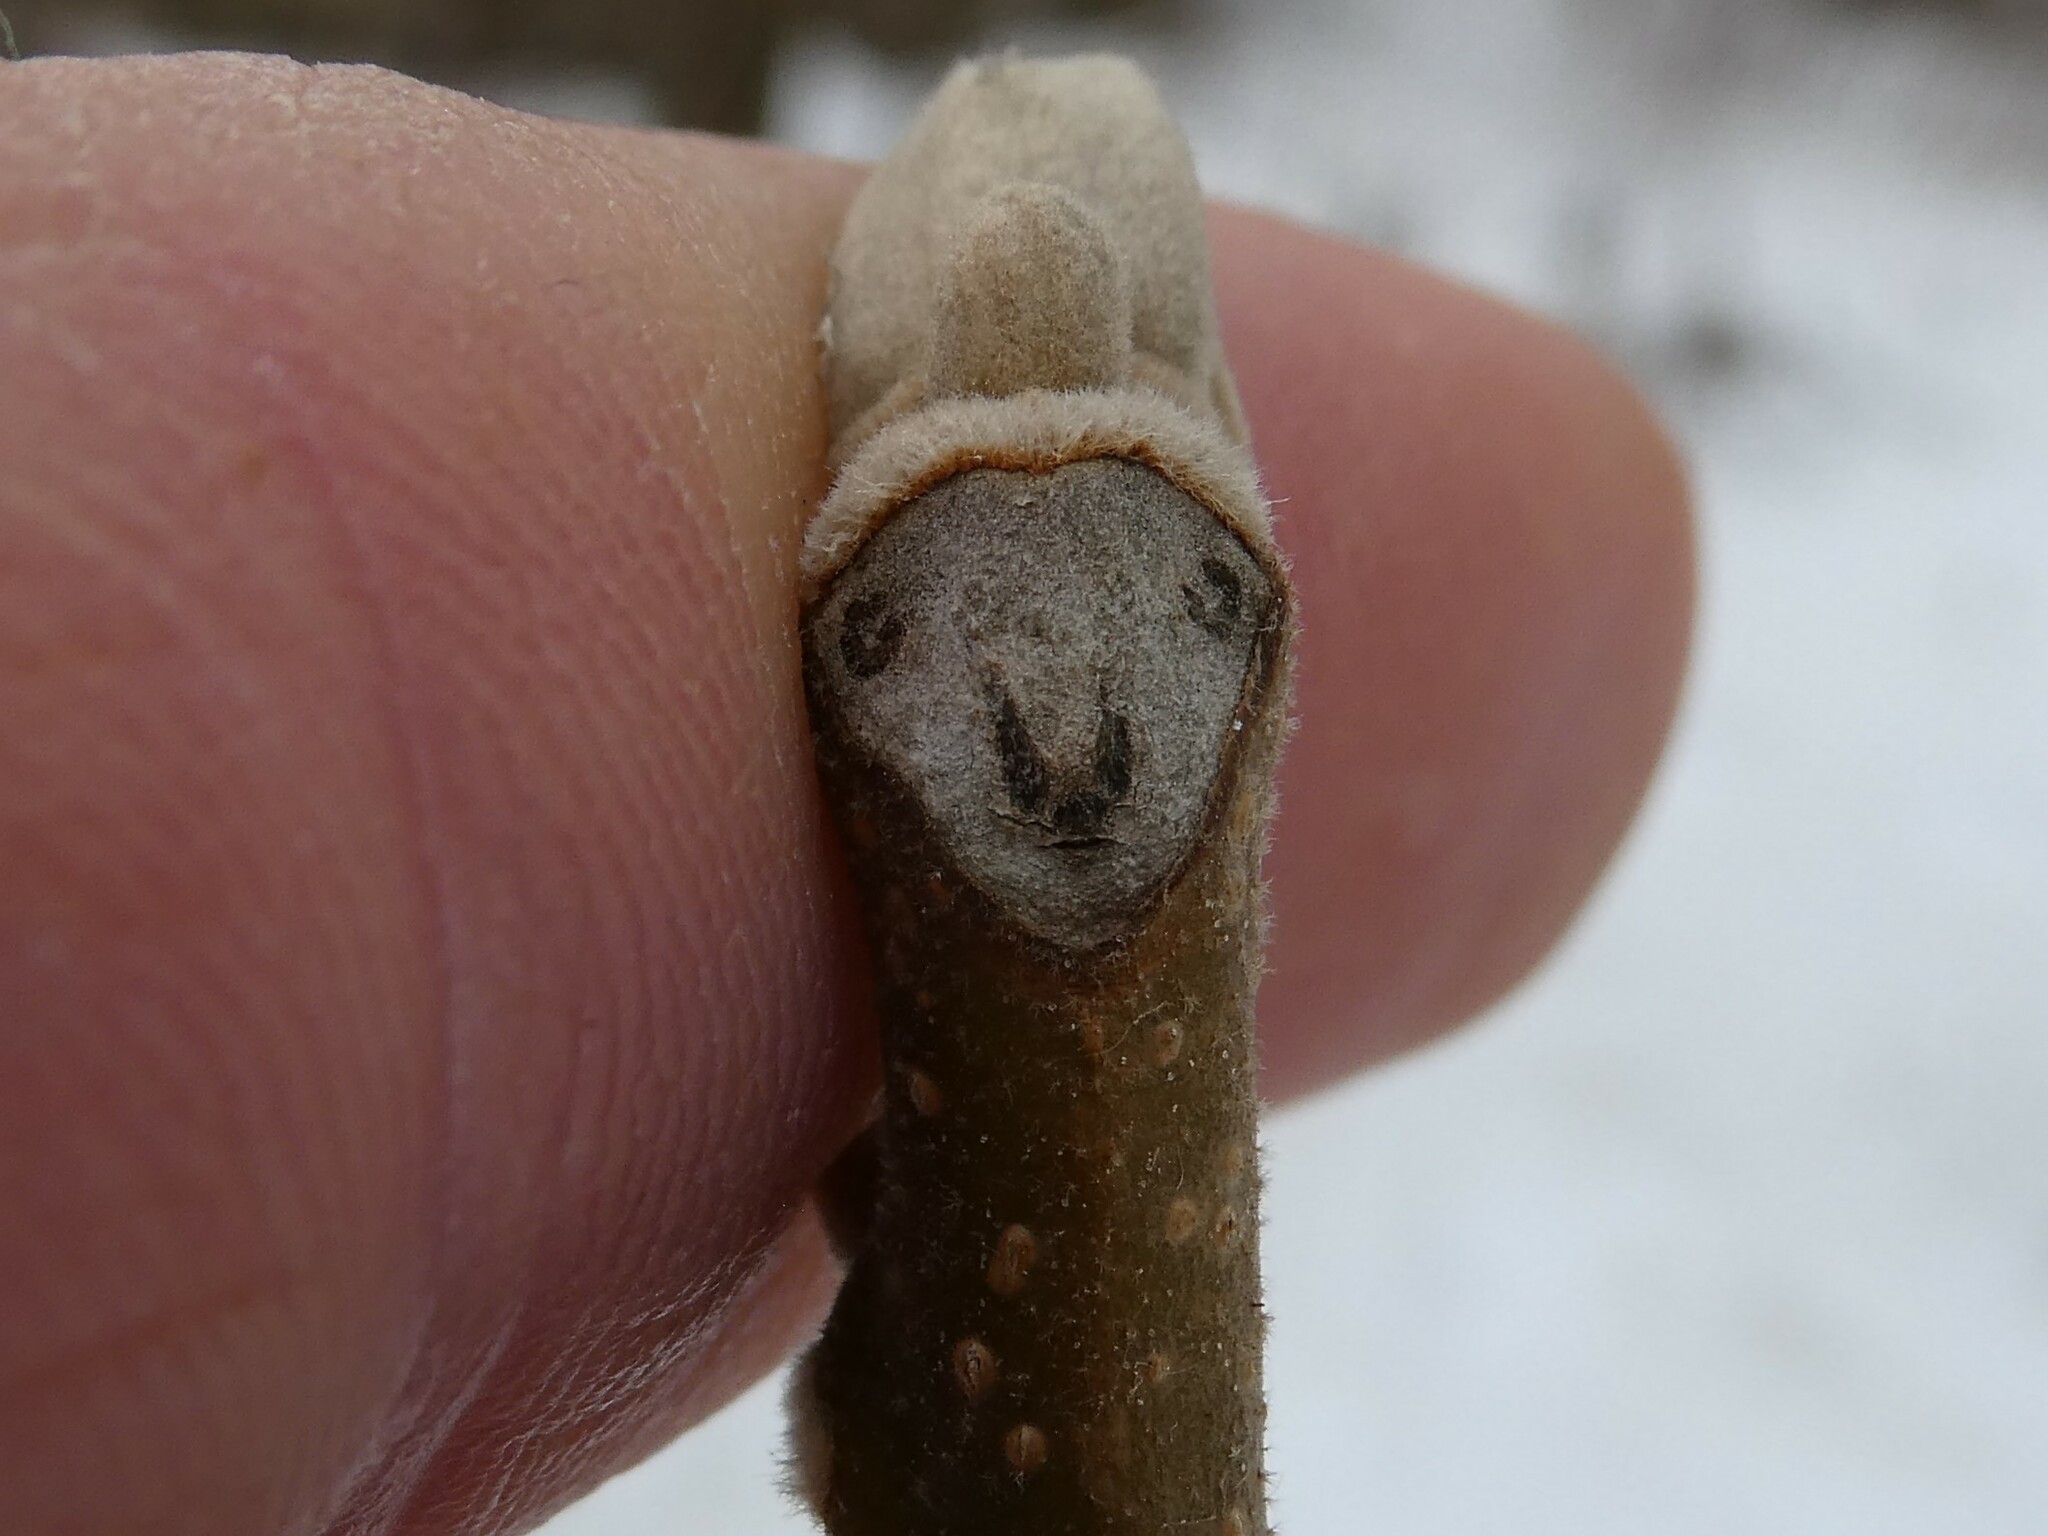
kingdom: Plantae
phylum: Tracheophyta
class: Magnoliopsida
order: Fagales
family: Juglandaceae
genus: Juglans
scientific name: Juglans cinerea
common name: Butternut
